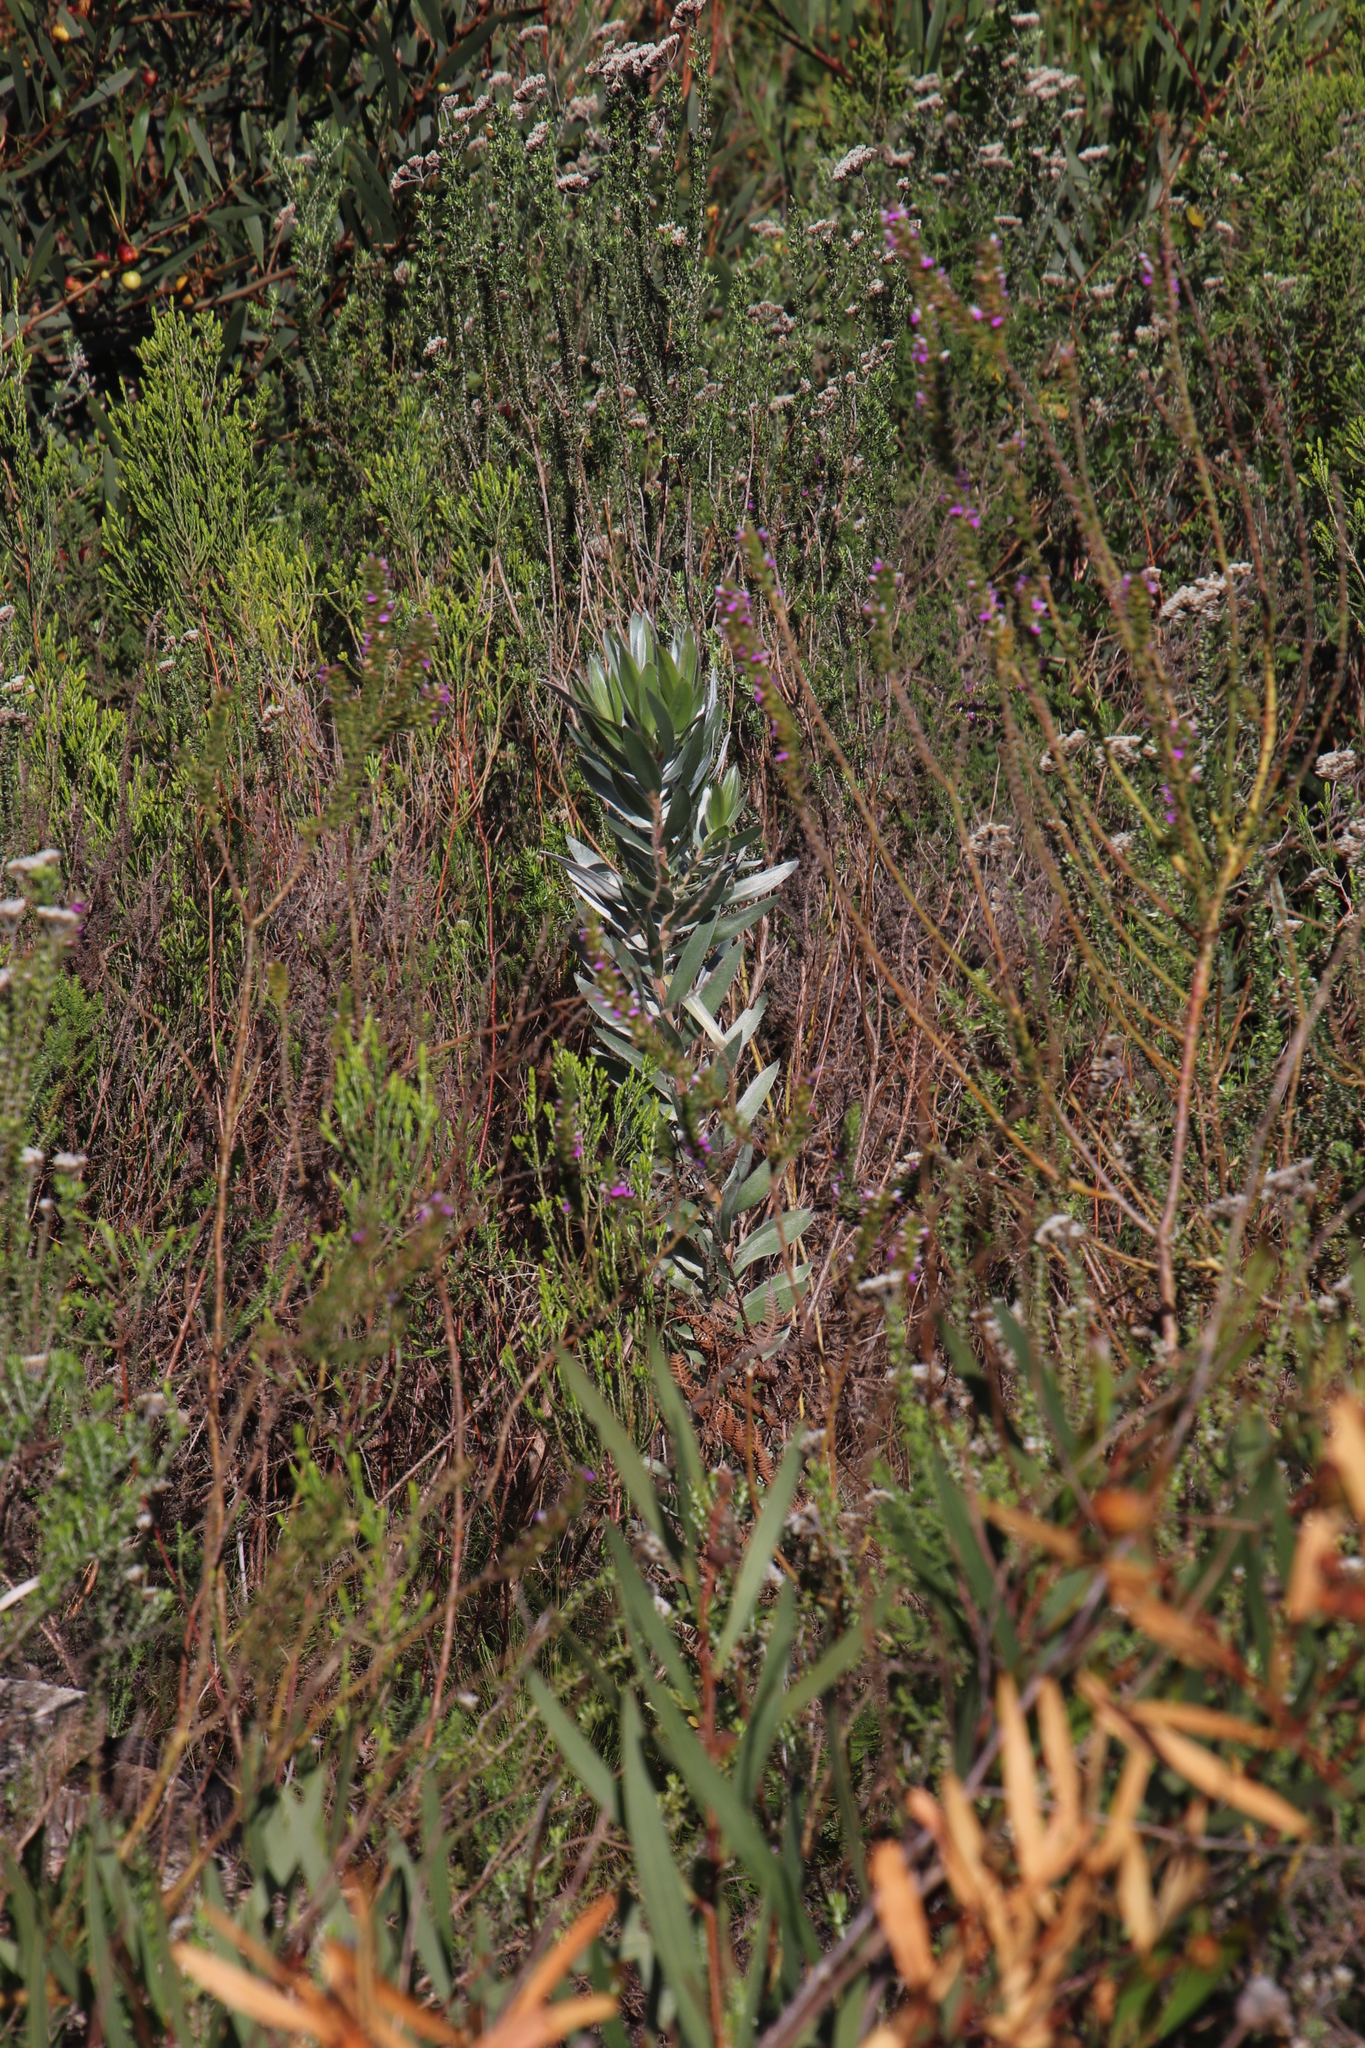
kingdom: Plantae
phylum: Tracheophyta
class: Magnoliopsida
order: Proteales
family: Proteaceae
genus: Leucadendron
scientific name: Leucadendron argenteum
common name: Cape silver tree
